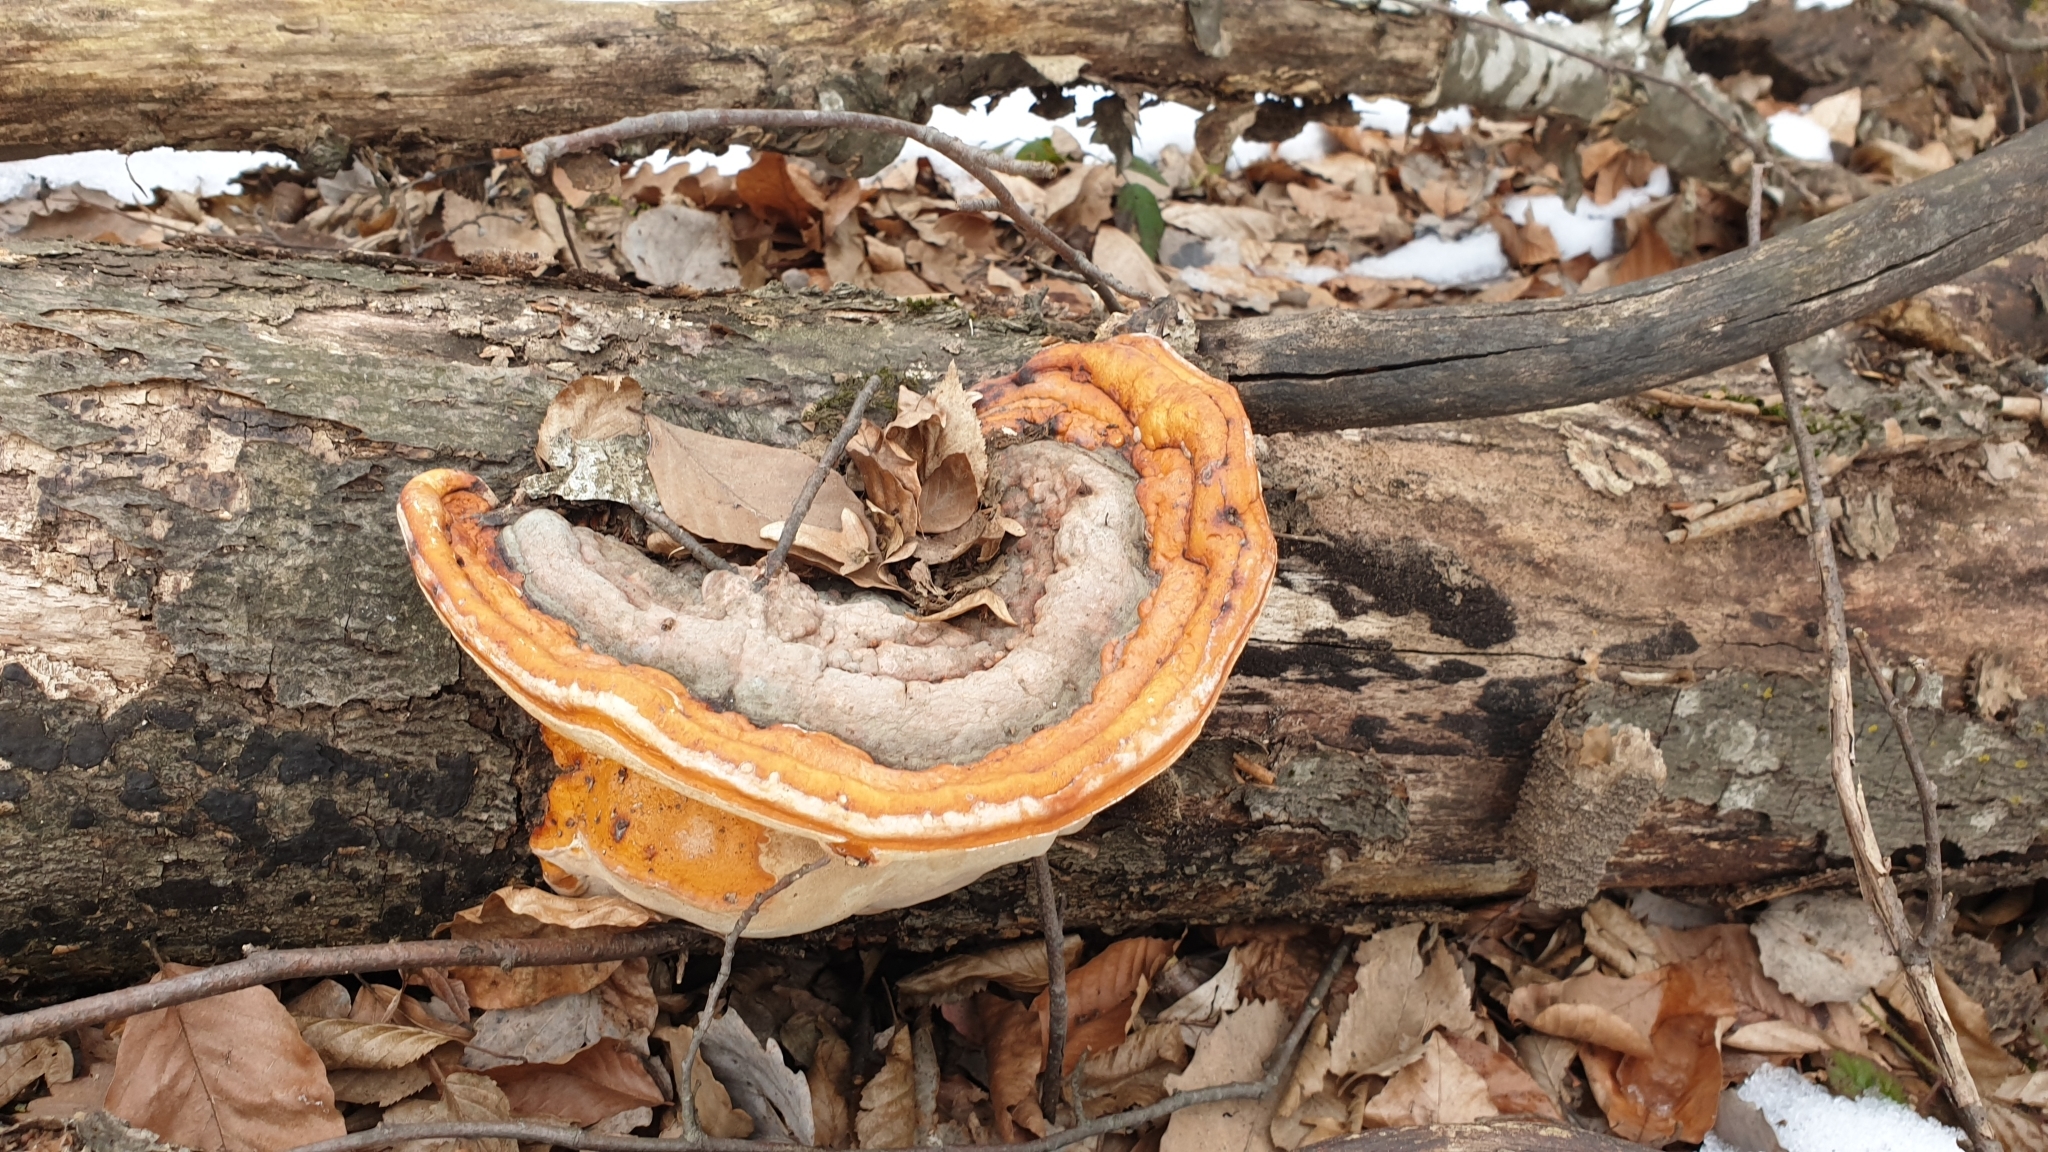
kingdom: Fungi
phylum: Basidiomycota
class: Agaricomycetes
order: Polyporales
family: Fomitopsidaceae
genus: Fomitopsis
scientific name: Fomitopsis pinicola
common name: Red-belted bracket
